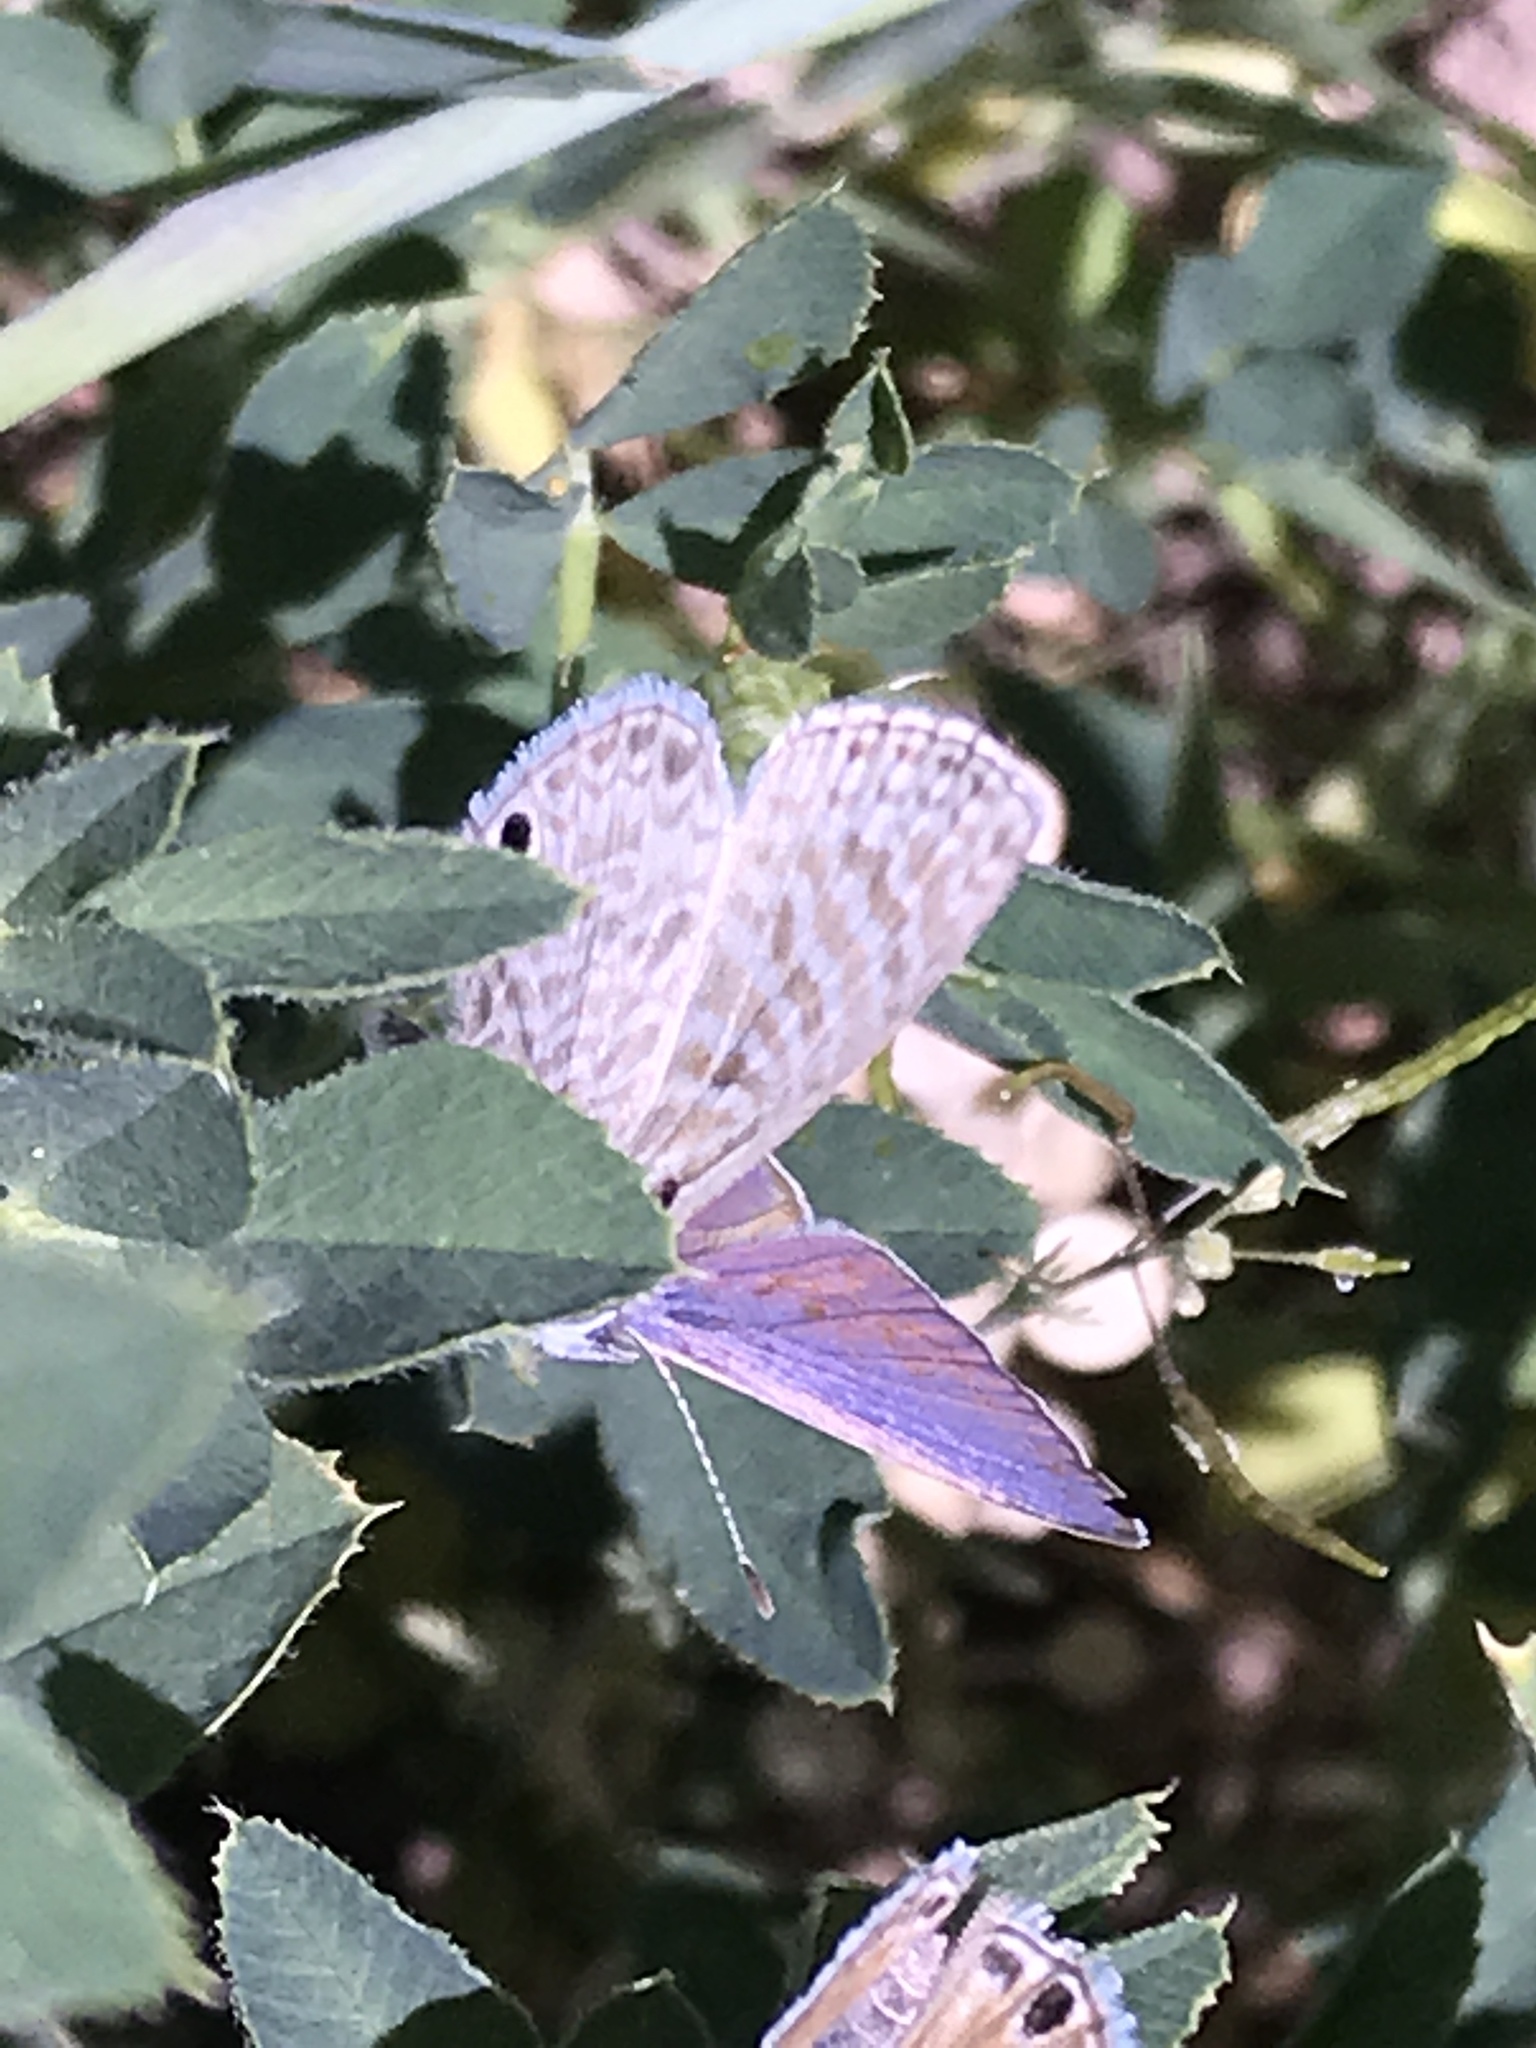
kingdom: Animalia
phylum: Arthropoda
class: Insecta
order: Lepidoptera
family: Lycaenidae
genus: Leptotes
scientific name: Leptotes marina
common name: Marine blue
